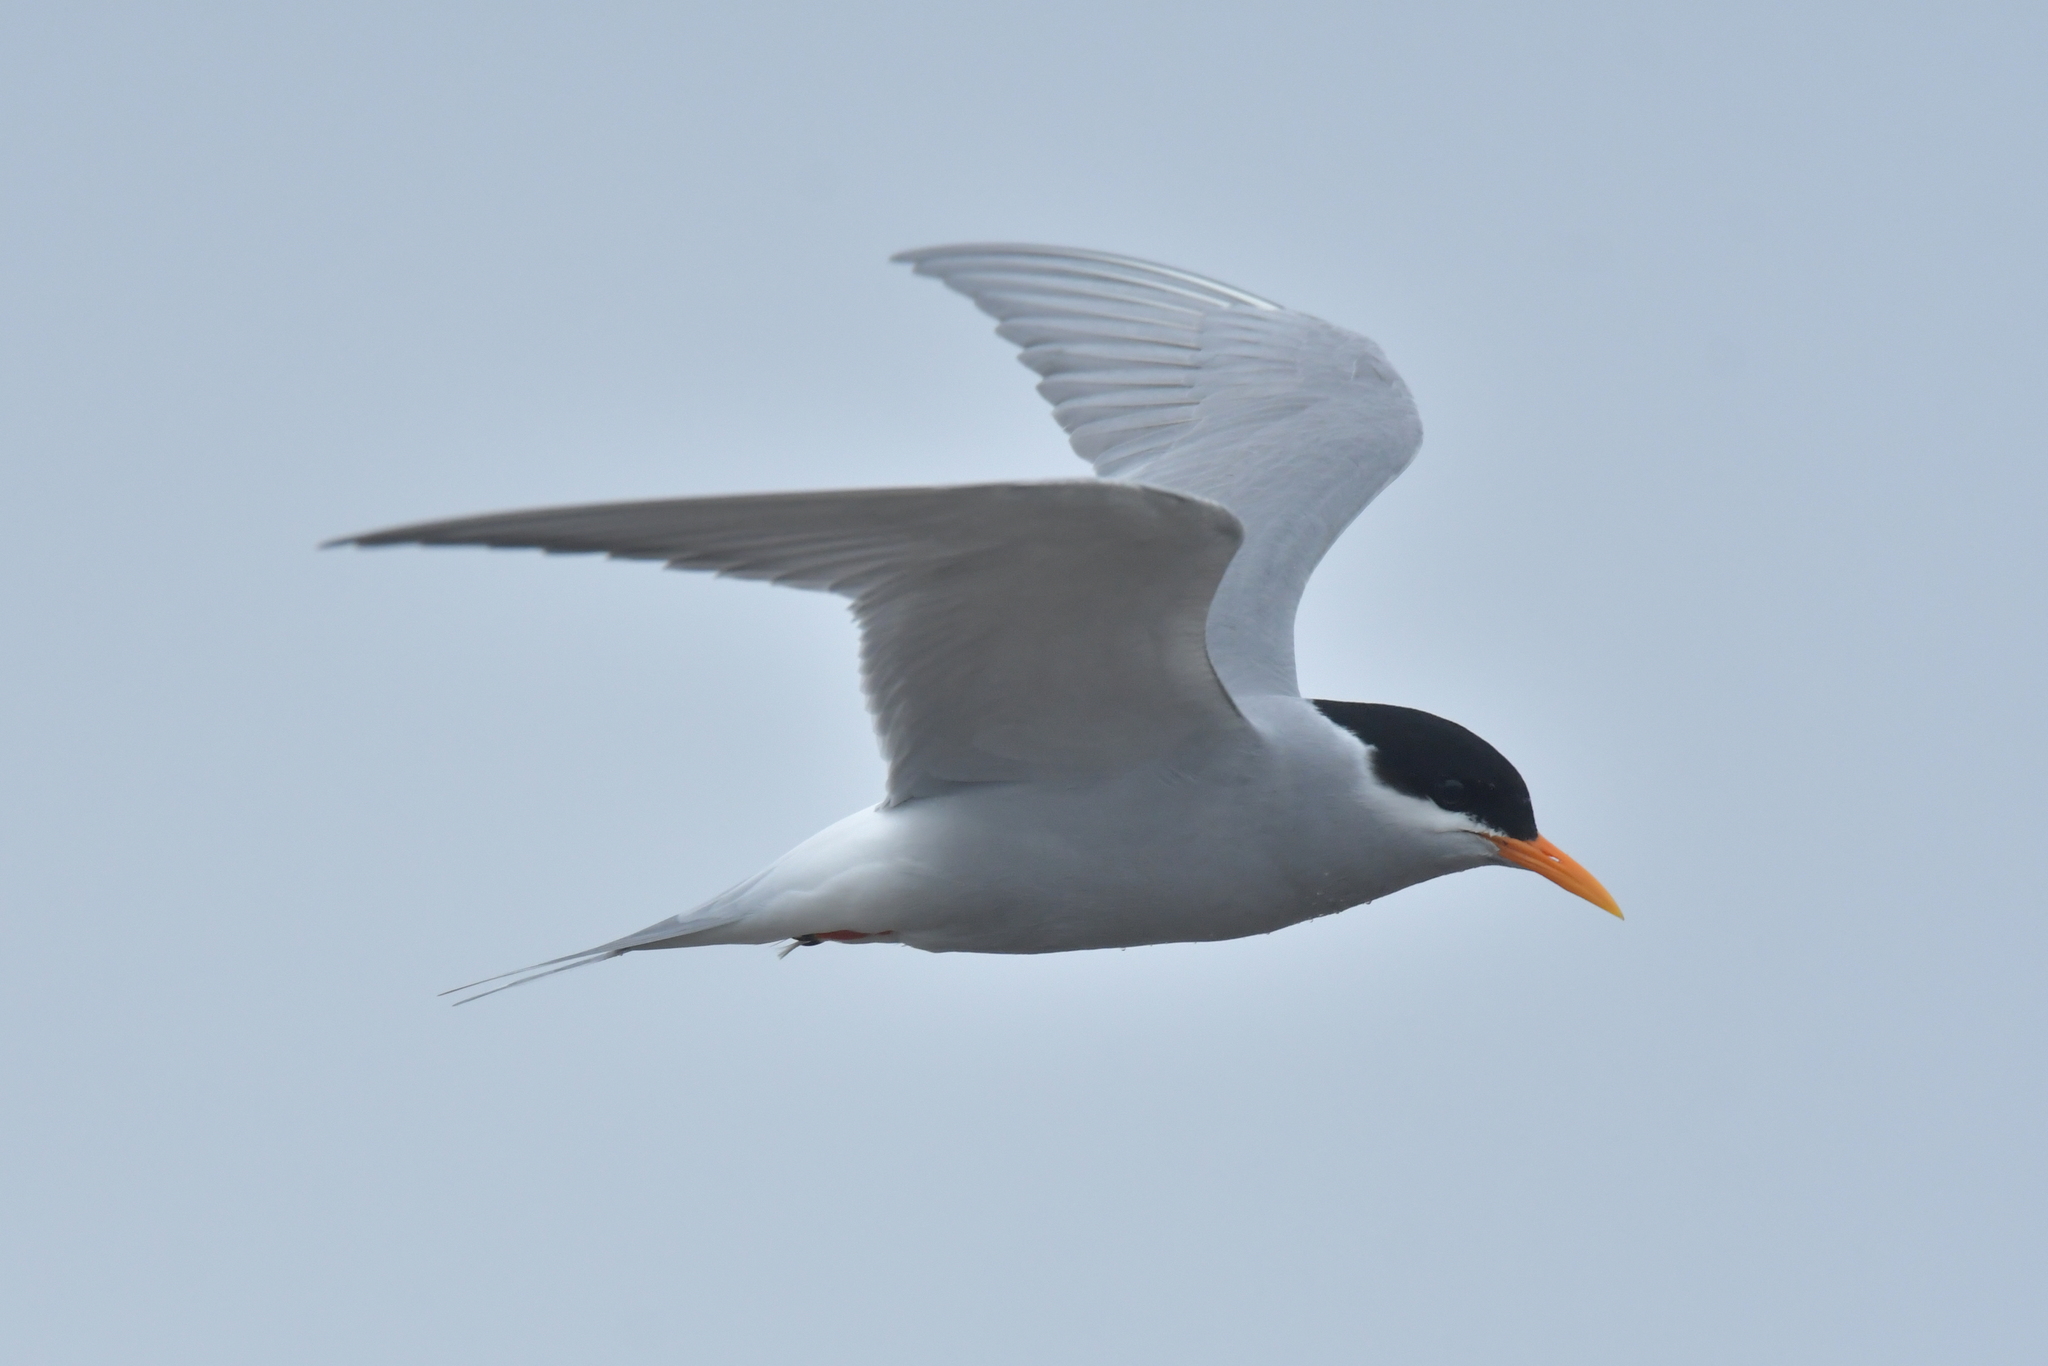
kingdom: Animalia
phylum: Chordata
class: Aves
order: Charadriiformes
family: Laridae
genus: Chlidonias
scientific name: Chlidonias albostriatus
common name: Black-fronted tern
